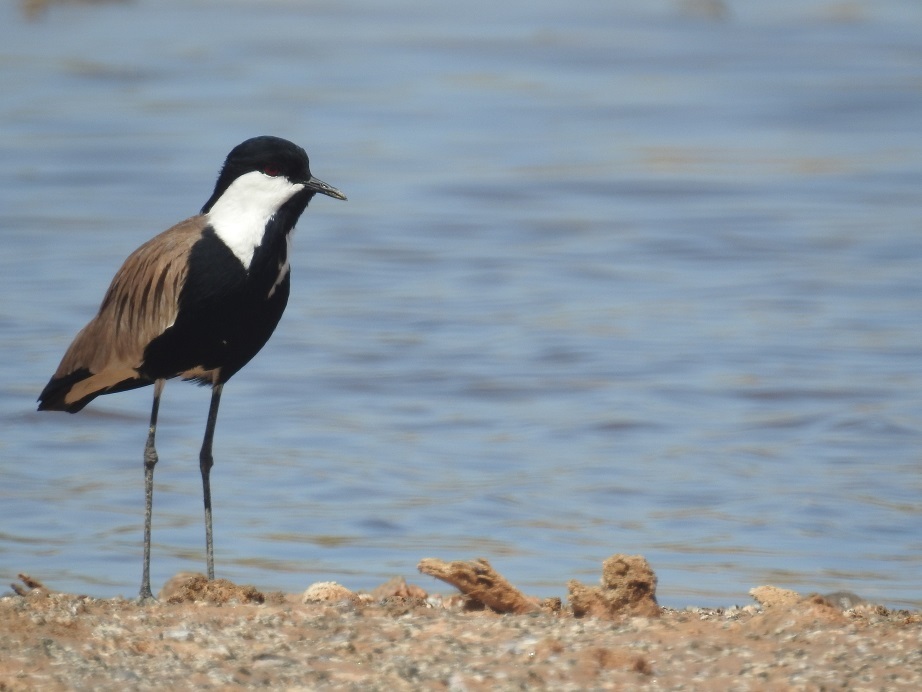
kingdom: Animalia
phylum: Chordata
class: Aves
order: Charadriiformes
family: Charadriidae
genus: Vanellus
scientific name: Vanellus spinosus
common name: Spur-winged lapwing
